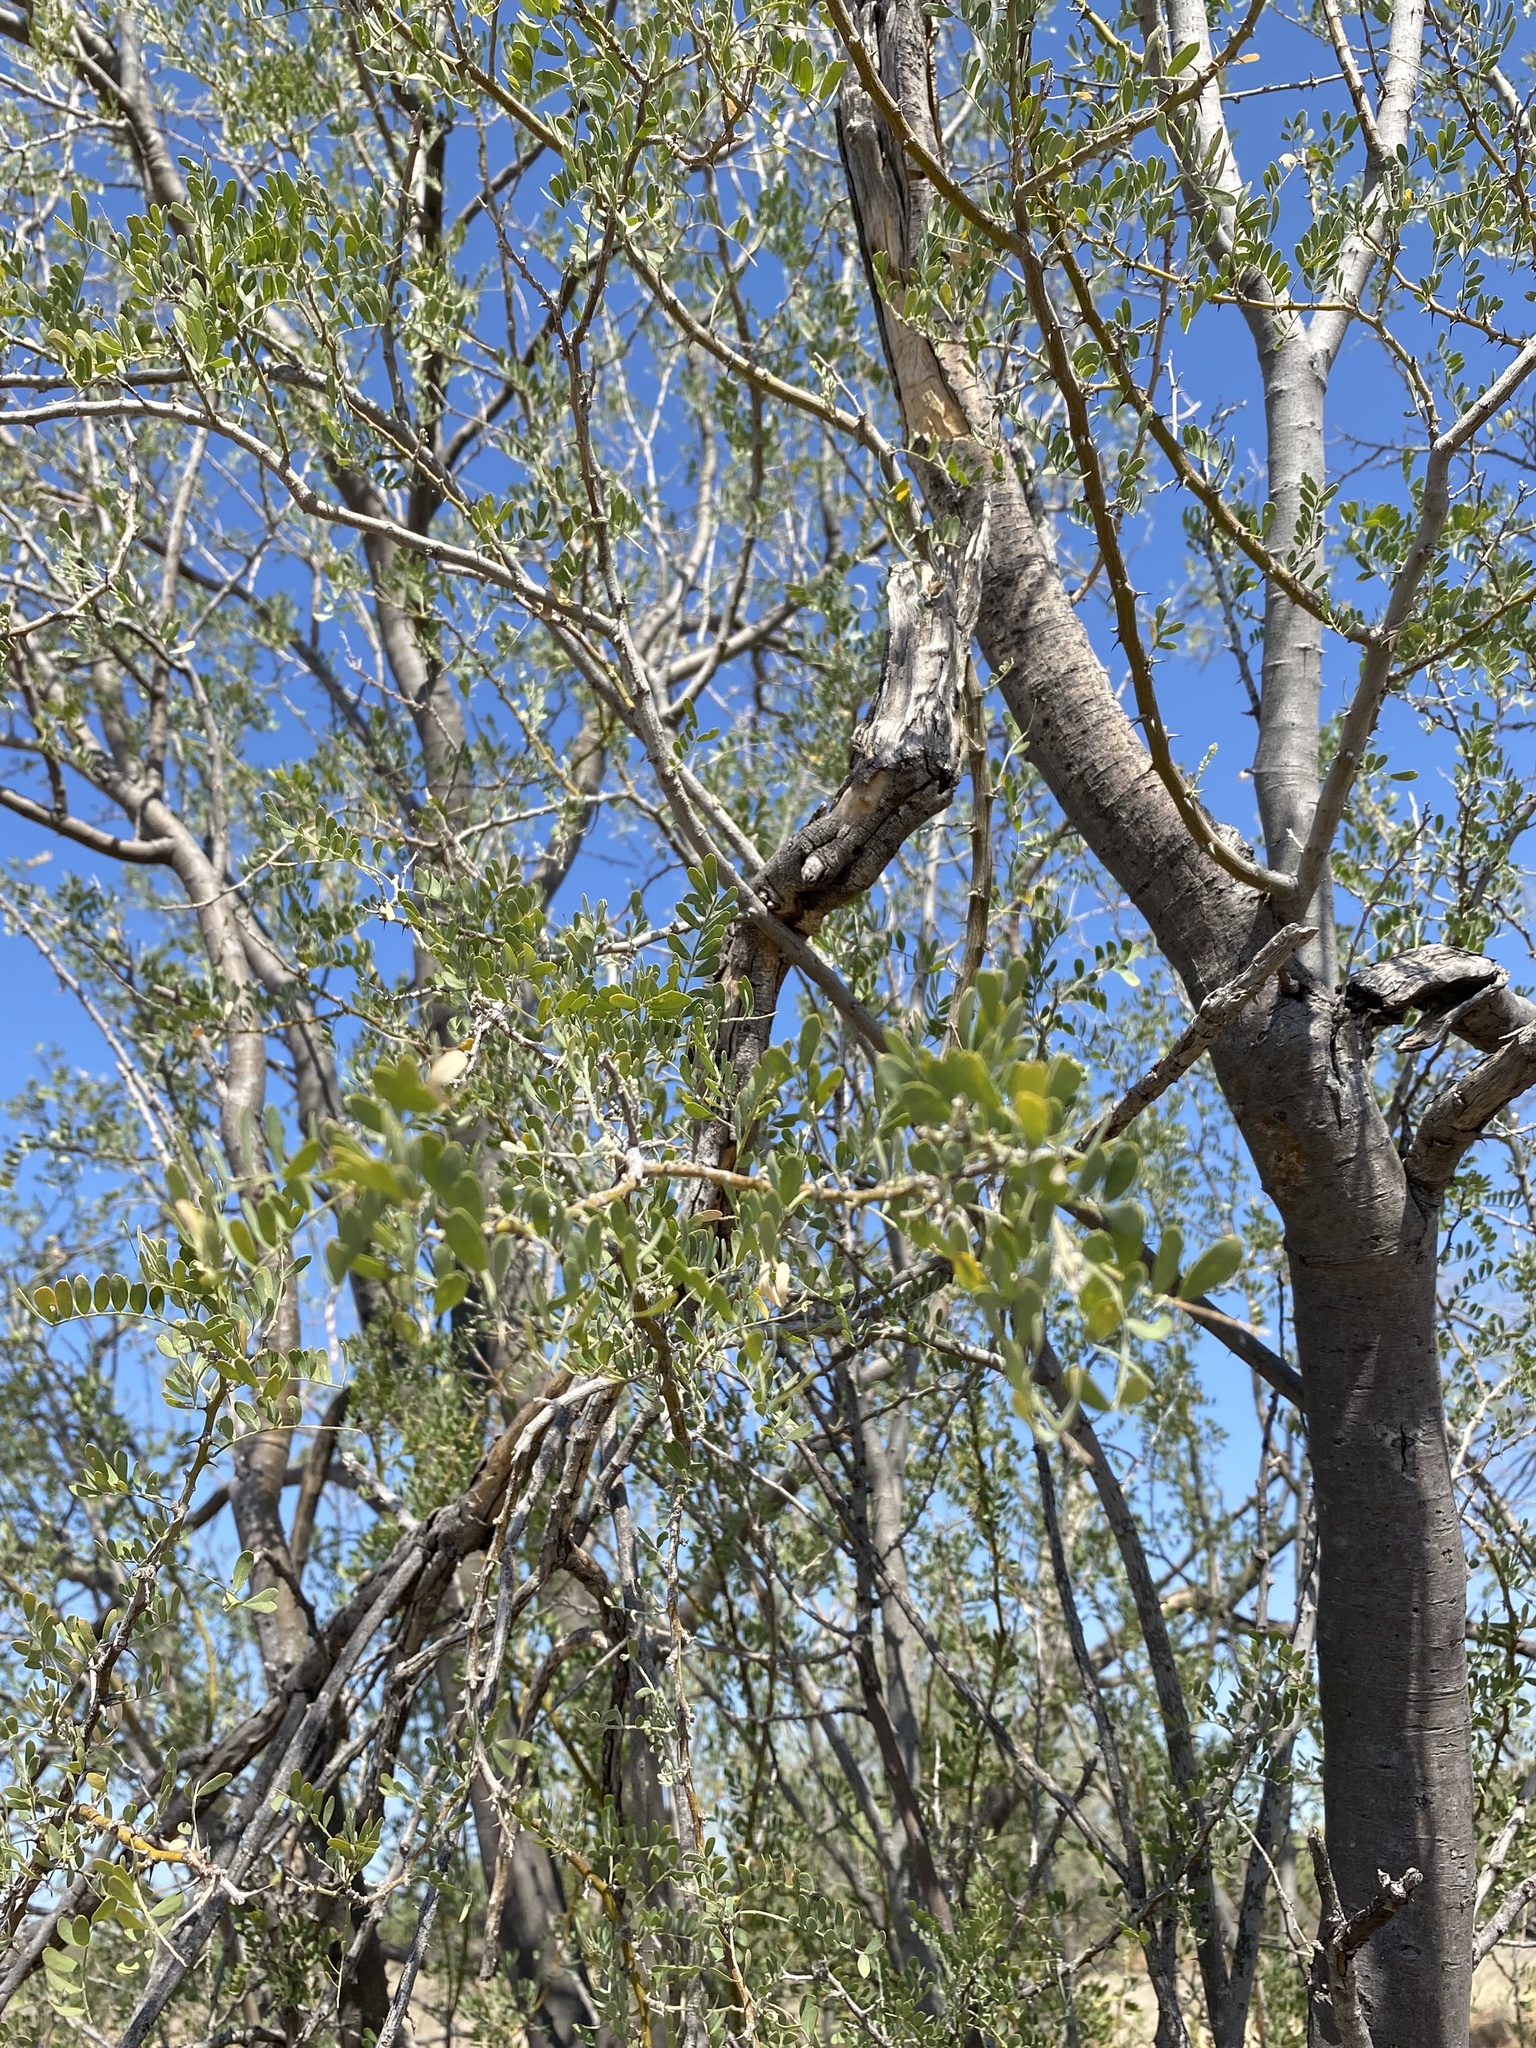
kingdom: Plantae
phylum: Tracheophyta
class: Magnoliopsida
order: Fabales
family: Fabaceae
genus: Olneya
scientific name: Olneya tesota
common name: Desert ironwood
